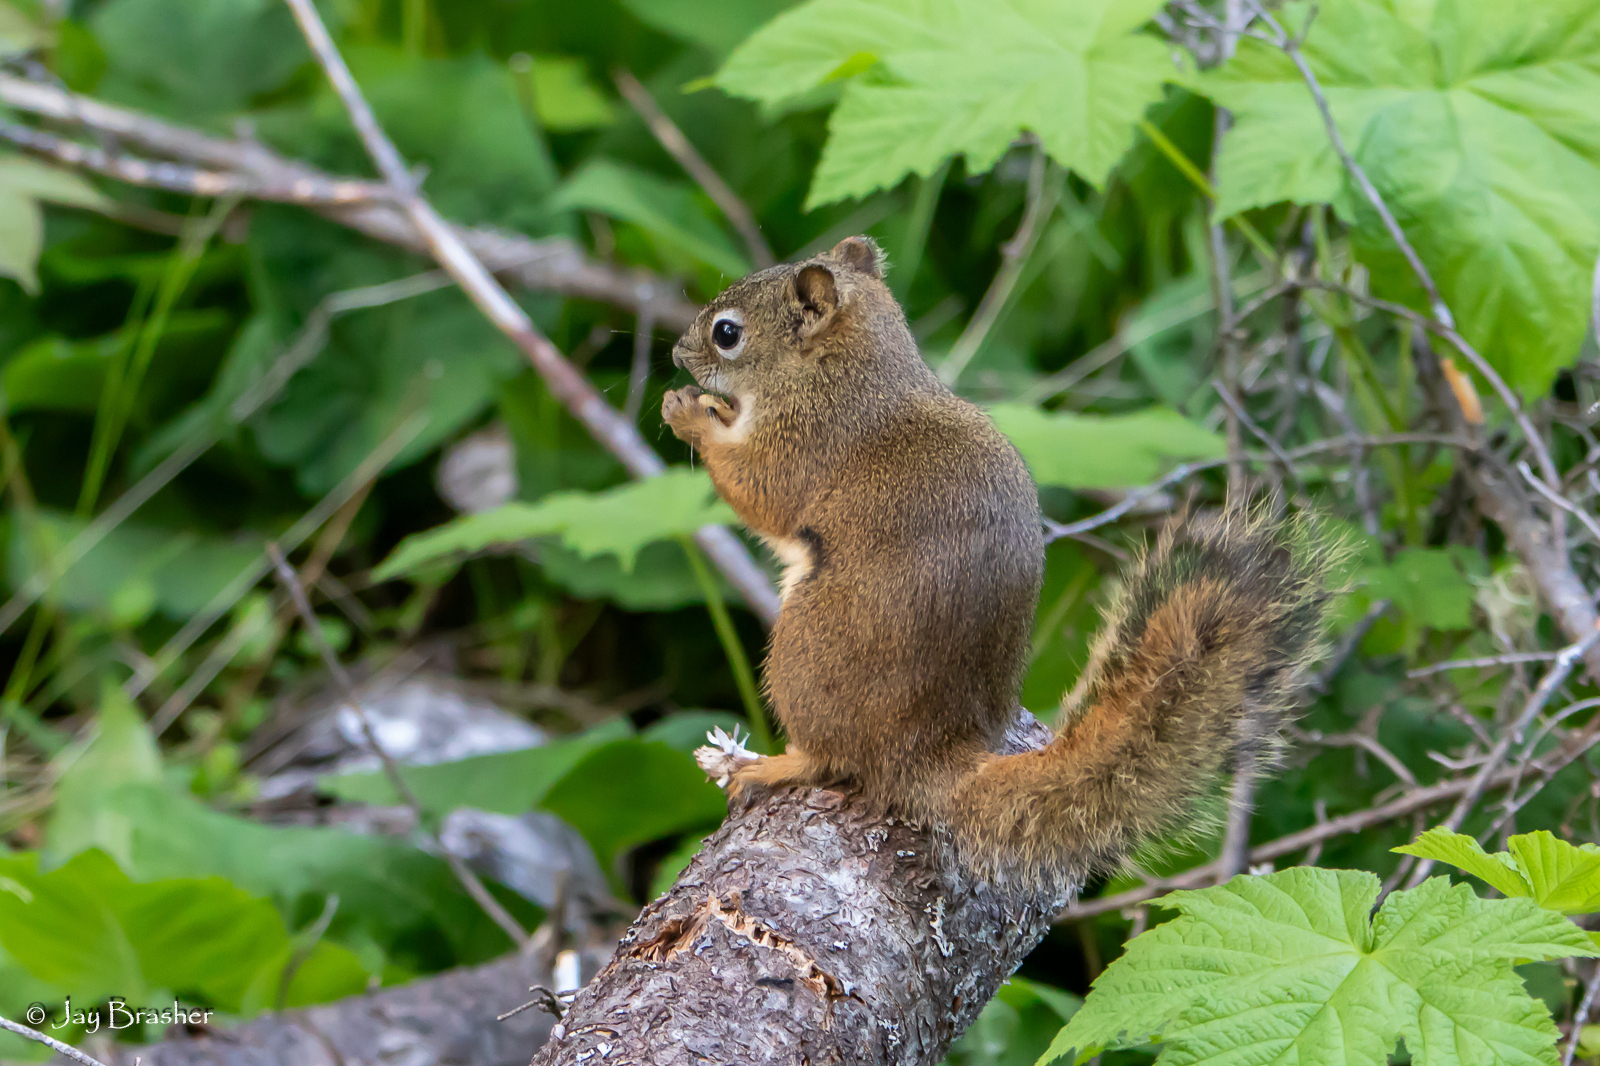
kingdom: Animalia
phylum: Chordata
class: Mammalia
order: Rodentia
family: Sciuridae
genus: Tamiasciurus
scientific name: Tamiasciurus hudsonicus
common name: Red squirrel
